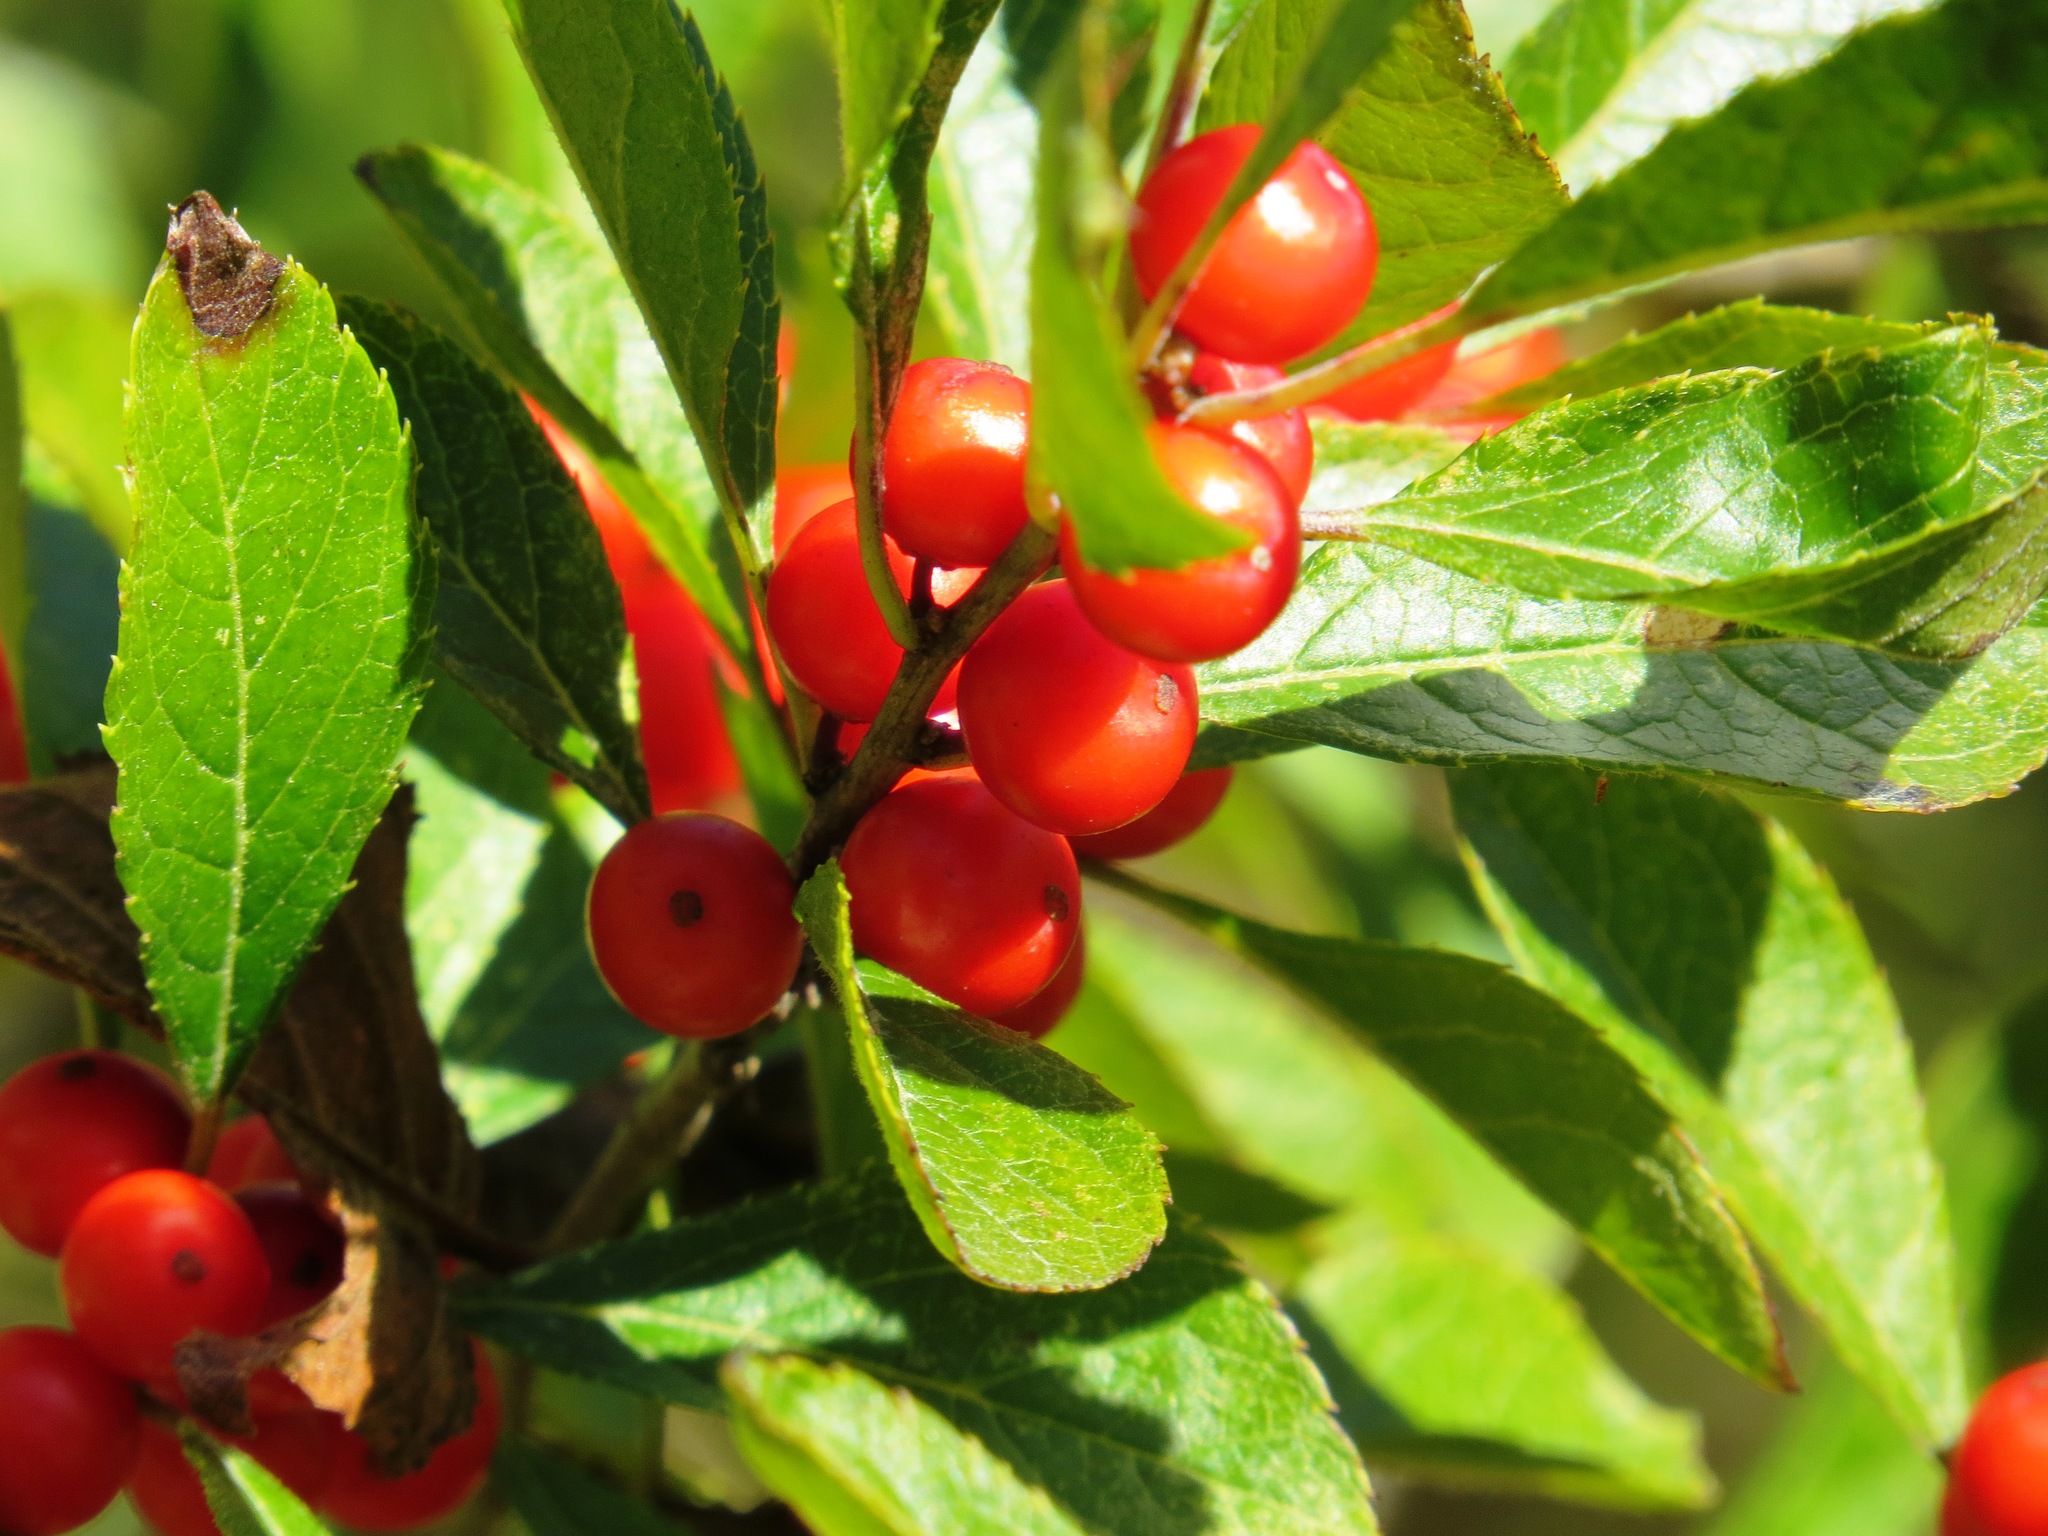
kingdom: Plantae
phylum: Tracheophyta
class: Magnoliopsida
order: Aquifoliales
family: Aquifoliaceae
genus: Ilex
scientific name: Ilex verticillata
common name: Virginia winterberry
